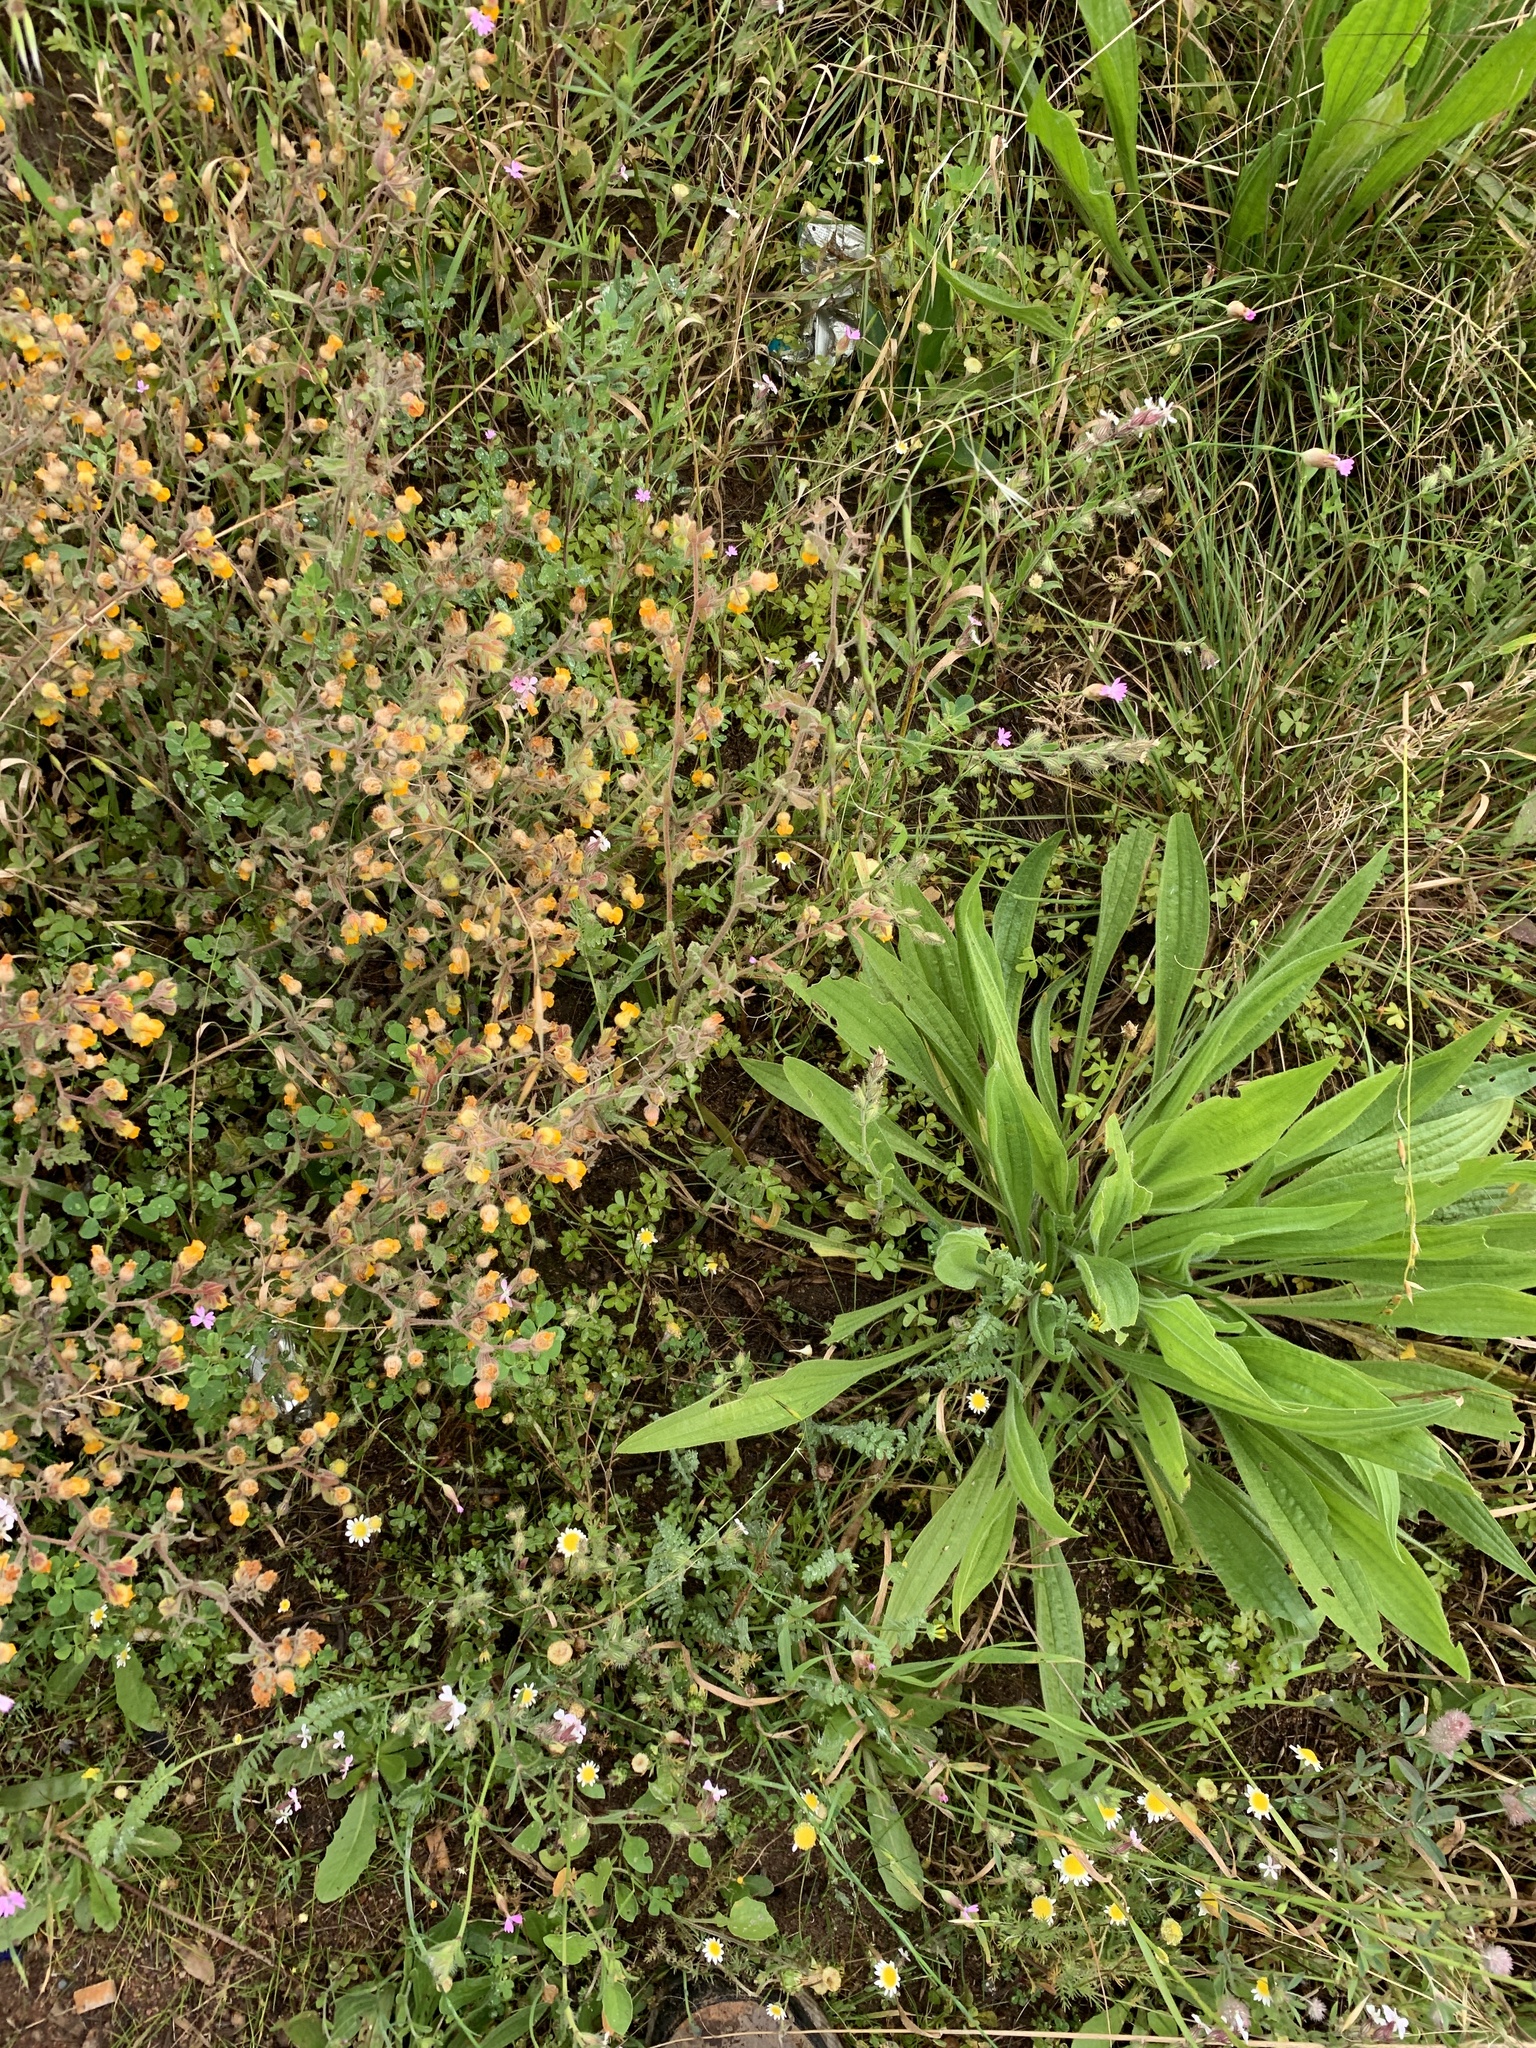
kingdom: Plantae
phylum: Tracheophyta
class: Magnoliopsida
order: Lamiales
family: Plantaginaceae
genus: Plantago
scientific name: Plantago lanceolata
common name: Ribwort plantain
